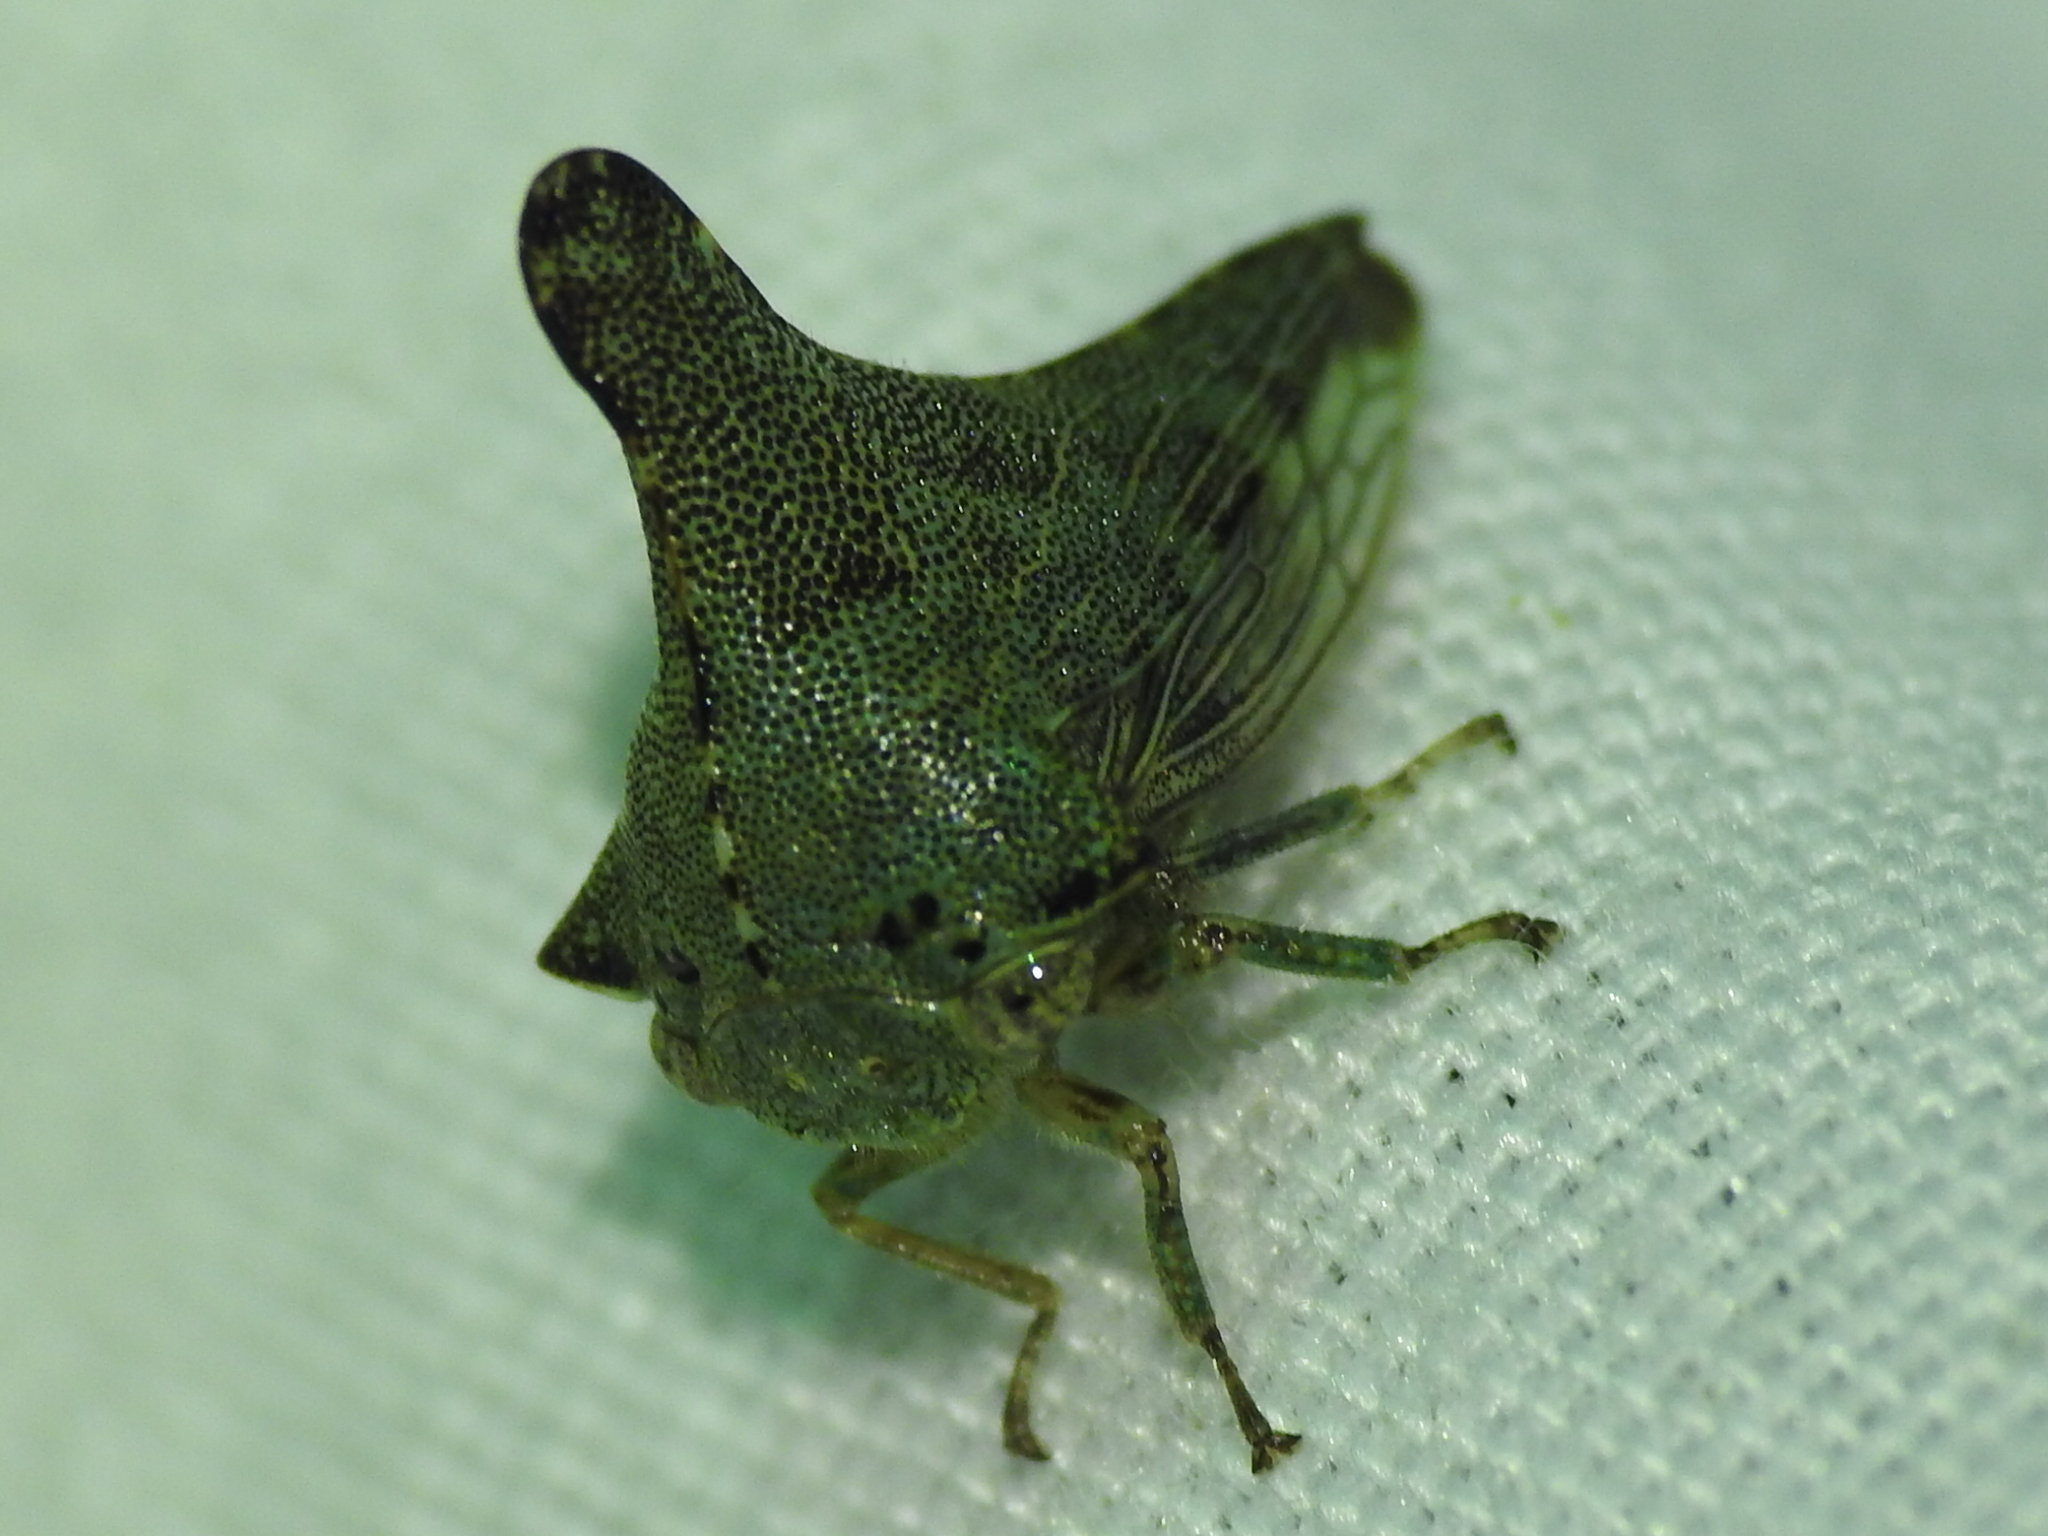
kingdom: Animalia
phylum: Arthropoda
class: Insecta
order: Hemiptera
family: Membracidae
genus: Glossonotus
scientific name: Glossonotus acuminata
